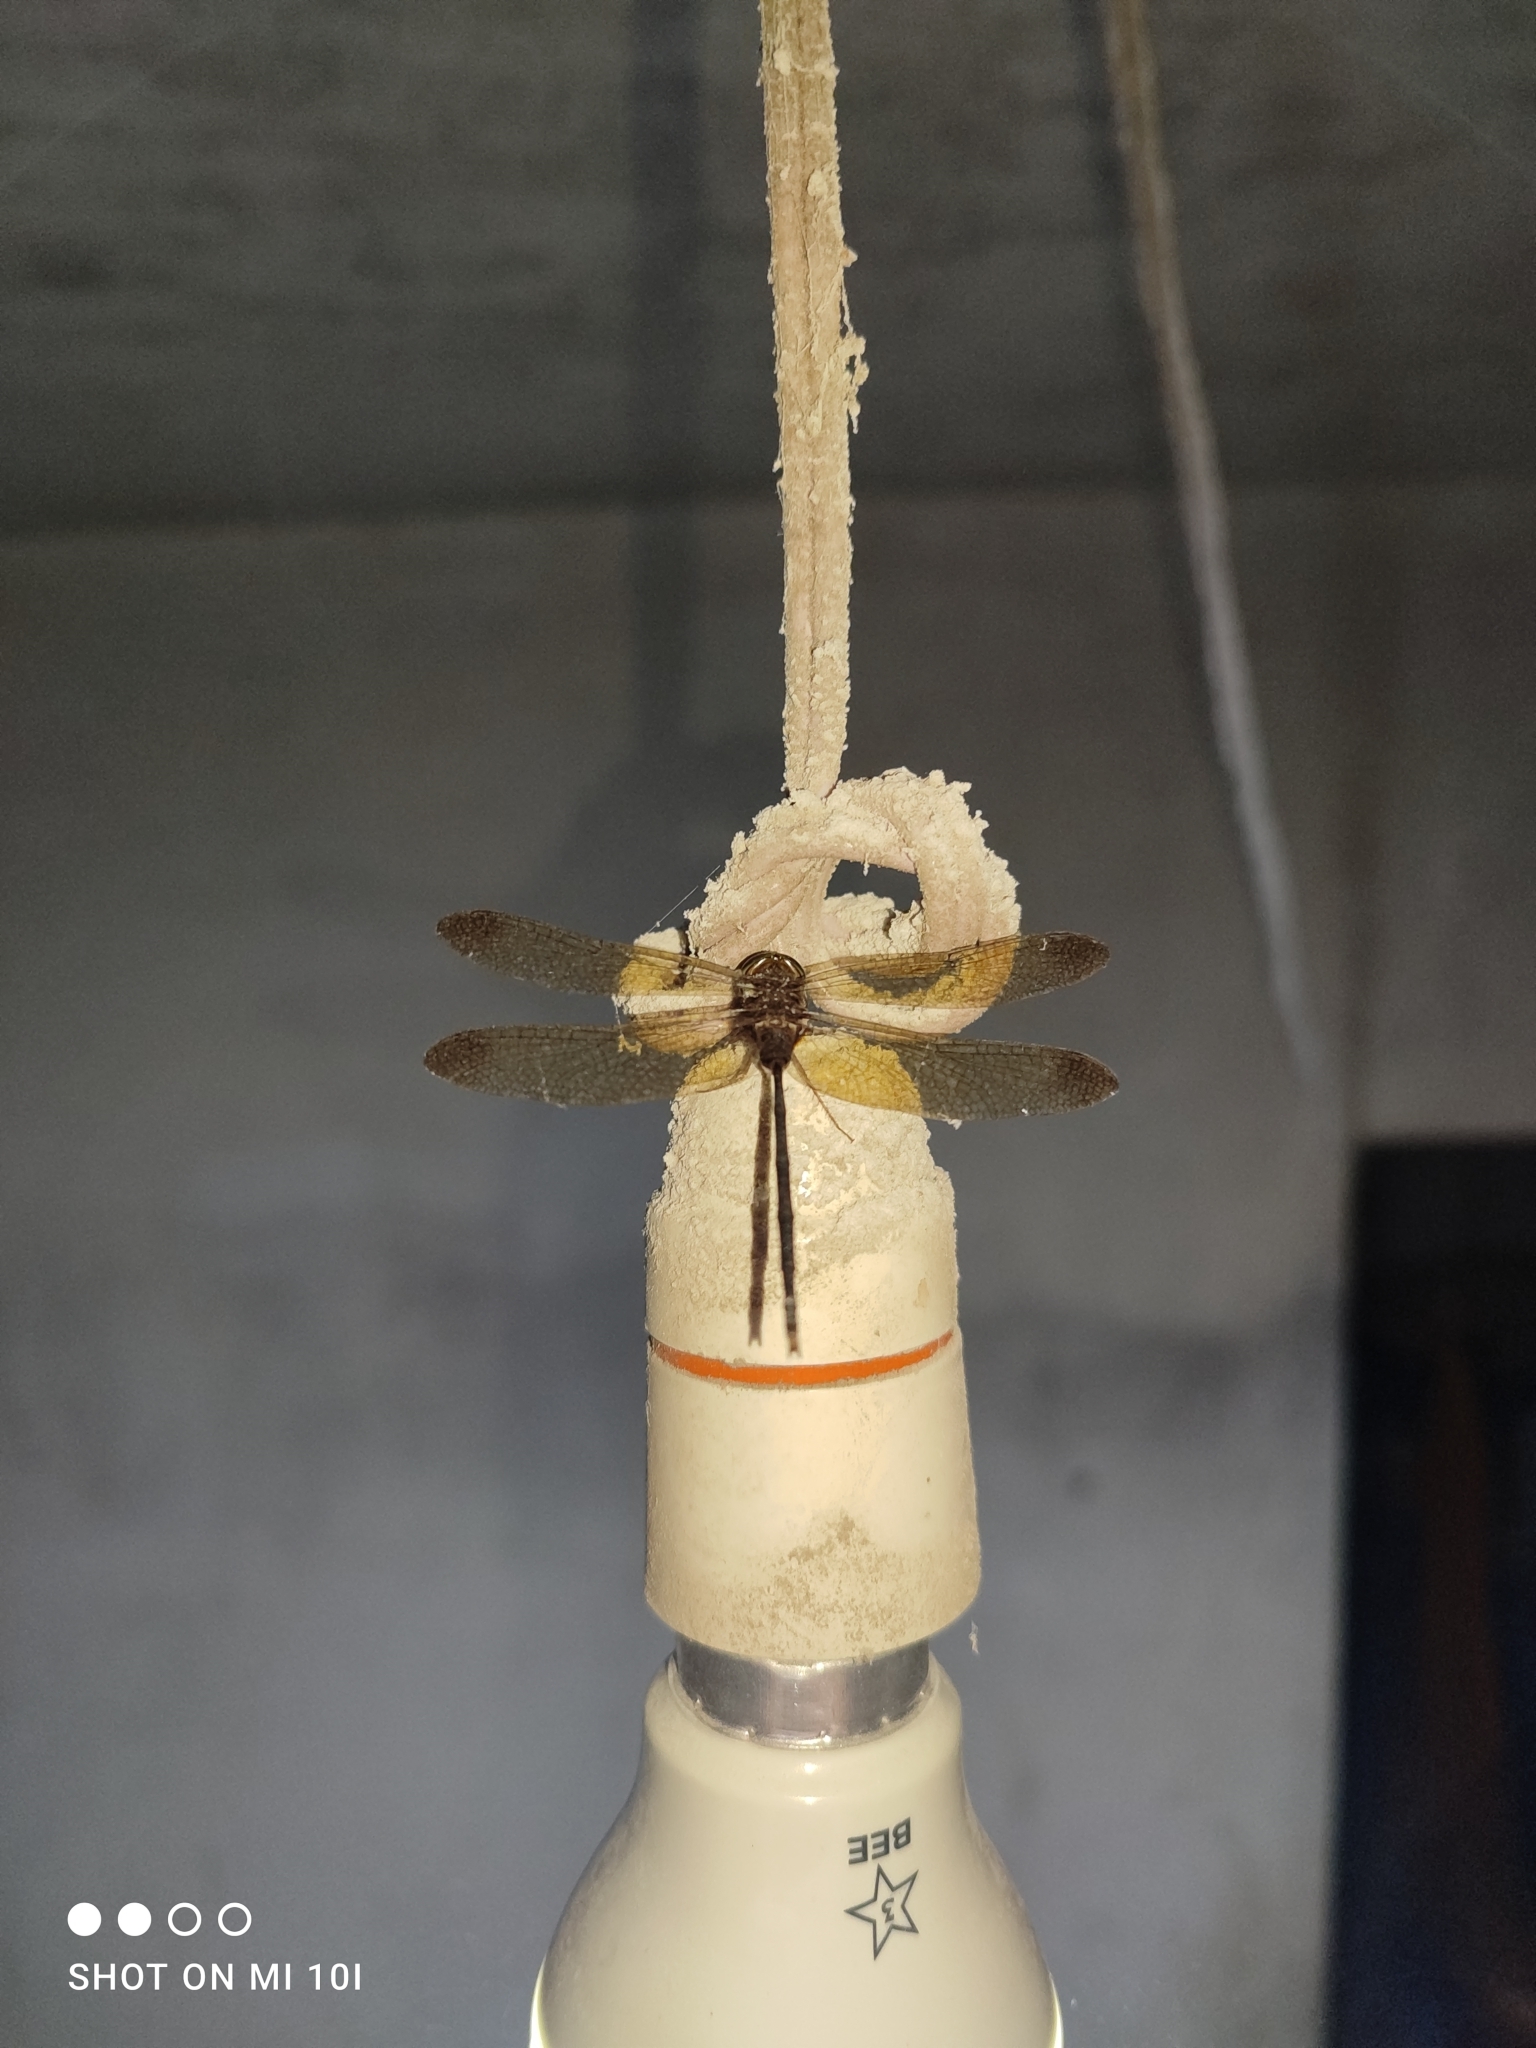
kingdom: Animalia
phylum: Arthropoda
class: Insecta
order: Odonata
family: Libellulidae
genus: Zyxomma
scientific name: Zyxomma petiolatum
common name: Dingy dusk-darter
